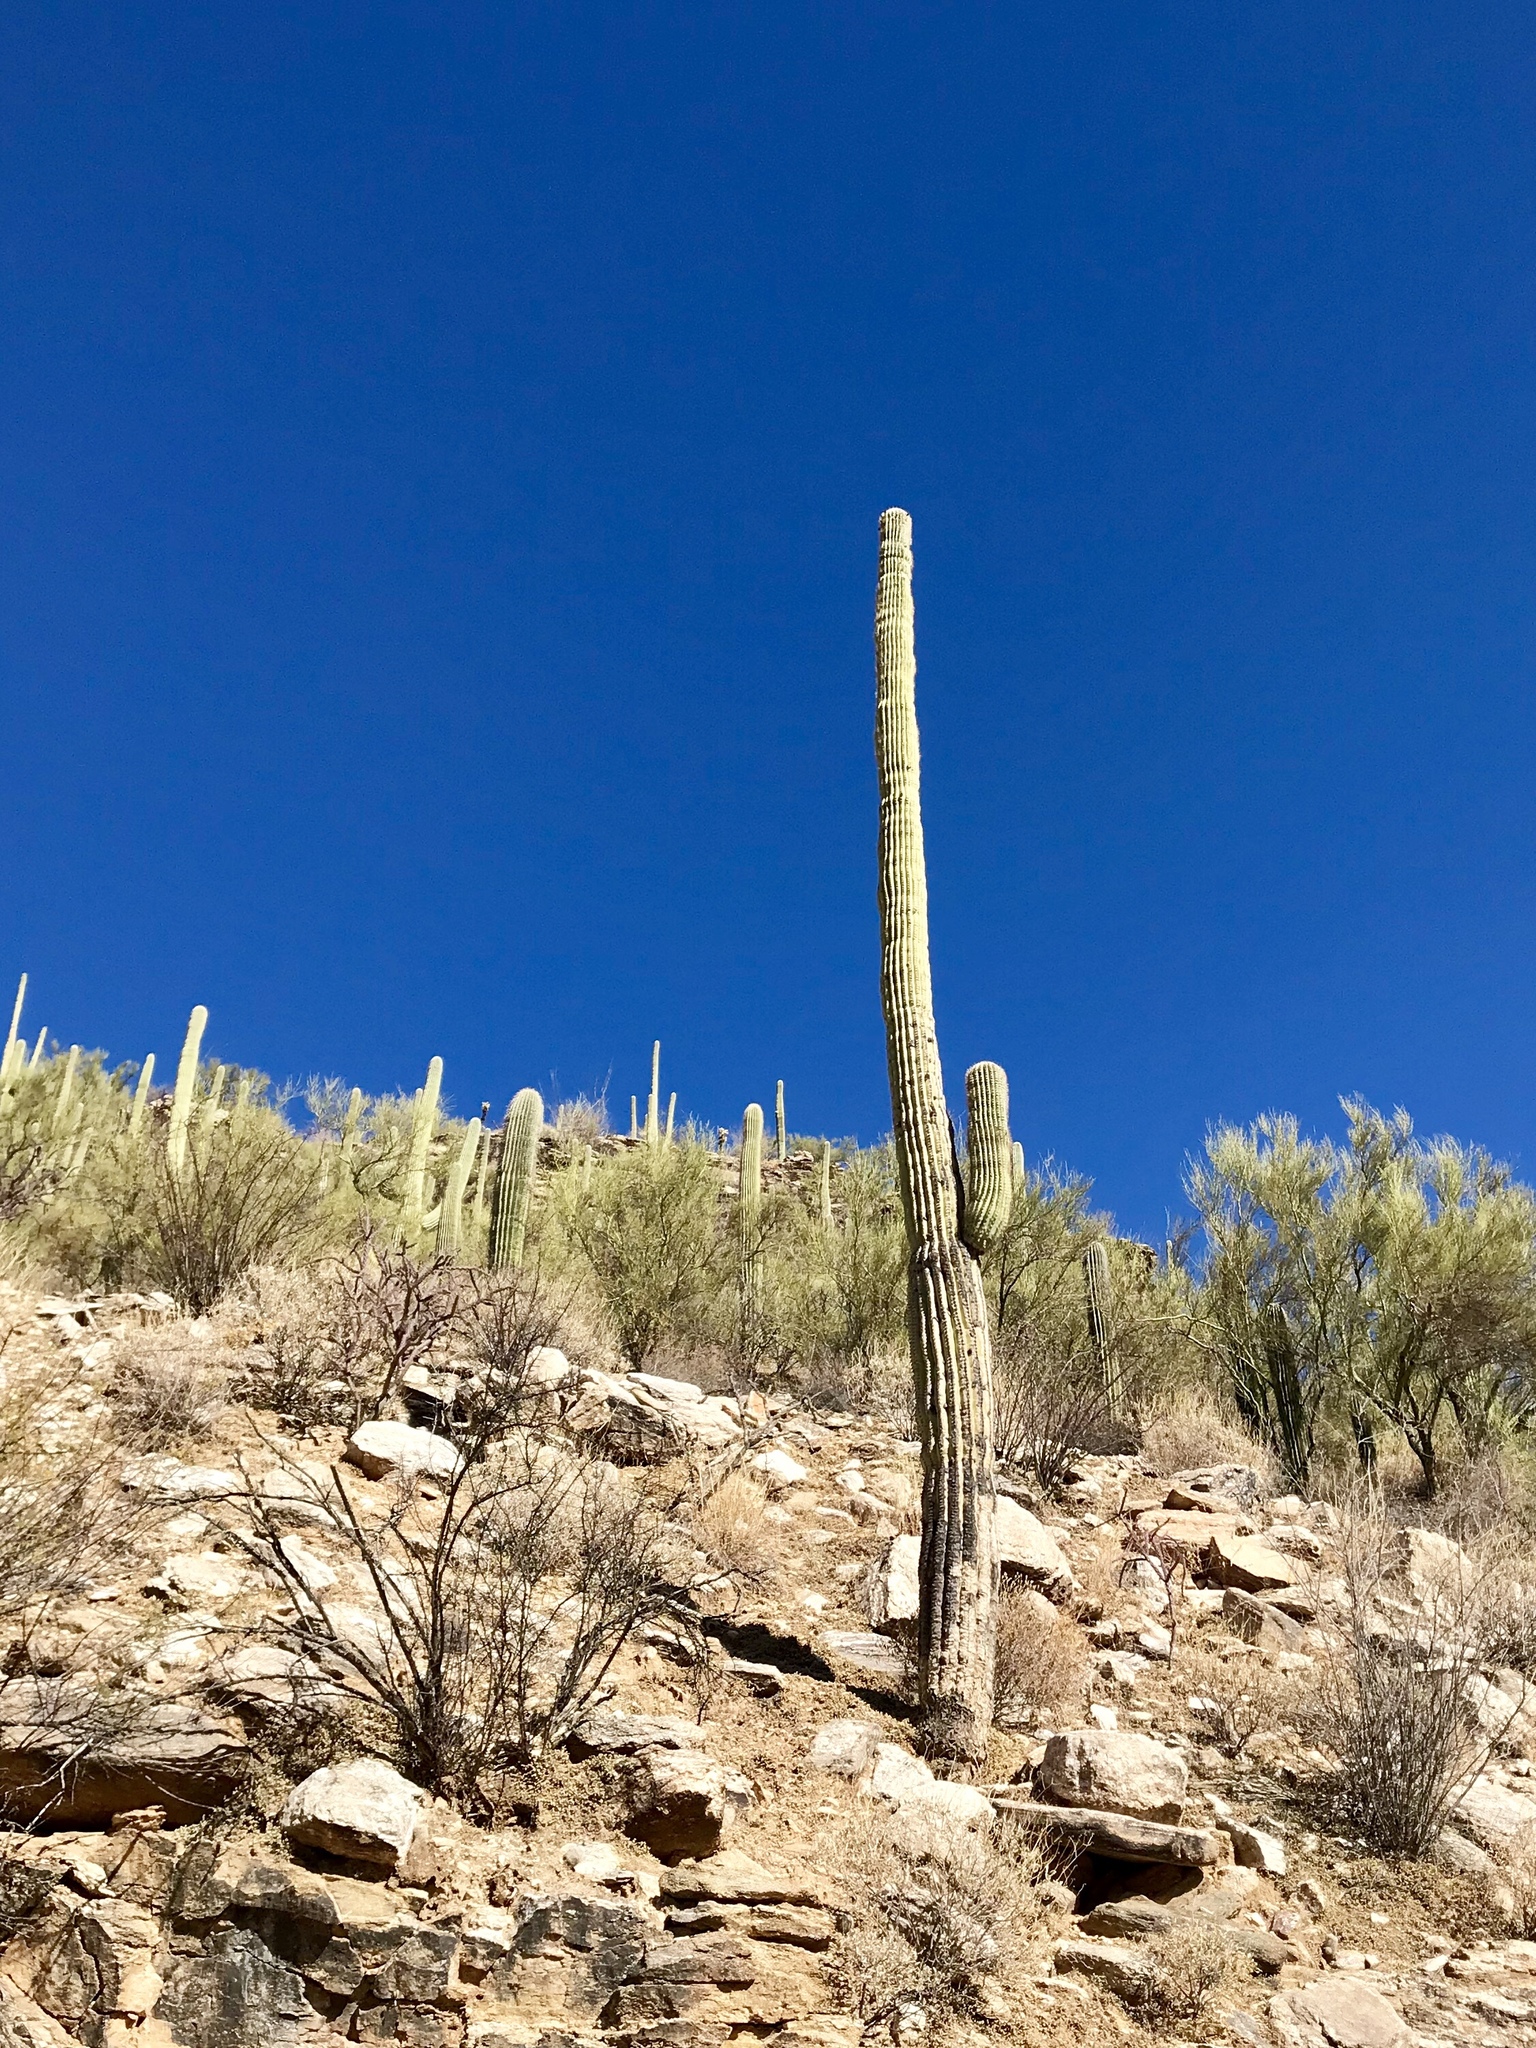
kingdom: Plantae
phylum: Tracheophyta
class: Magnoliopsida
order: Caryophyllales
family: Cactaceae
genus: Carnegiea
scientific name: Carnegiea gigantea
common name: Saguaro
